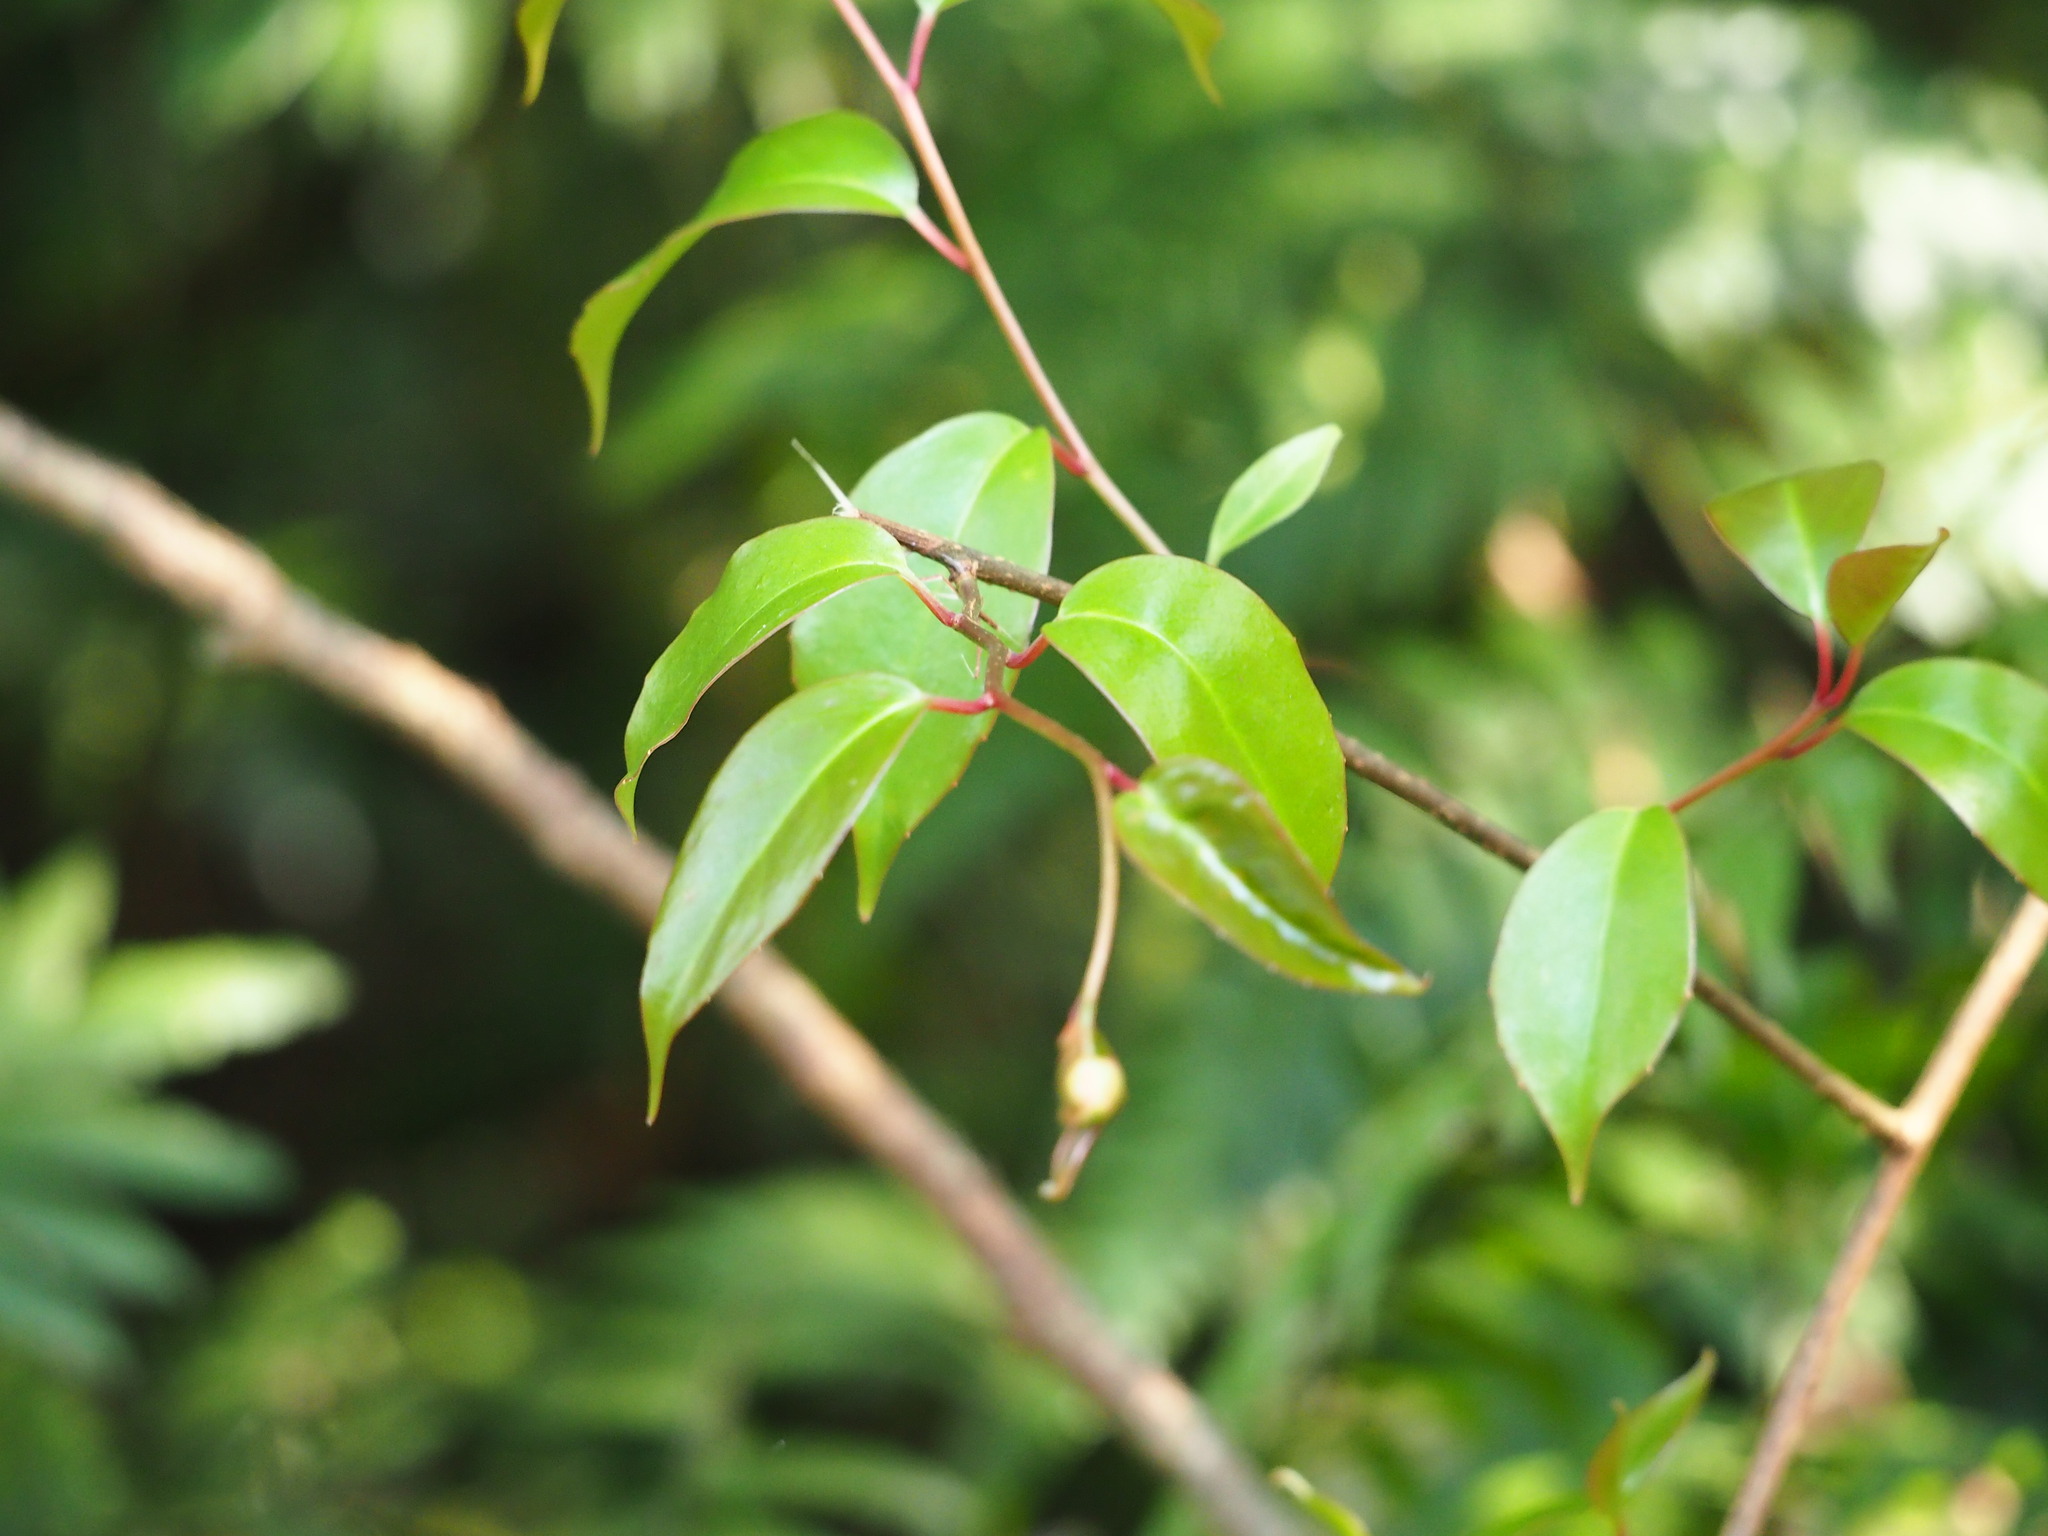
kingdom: Plantae
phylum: Tracheophyta
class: Magnoliopsida
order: Austrobaileyales
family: Schisandraceae
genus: Kadsura
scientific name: Kadsura matsudae
